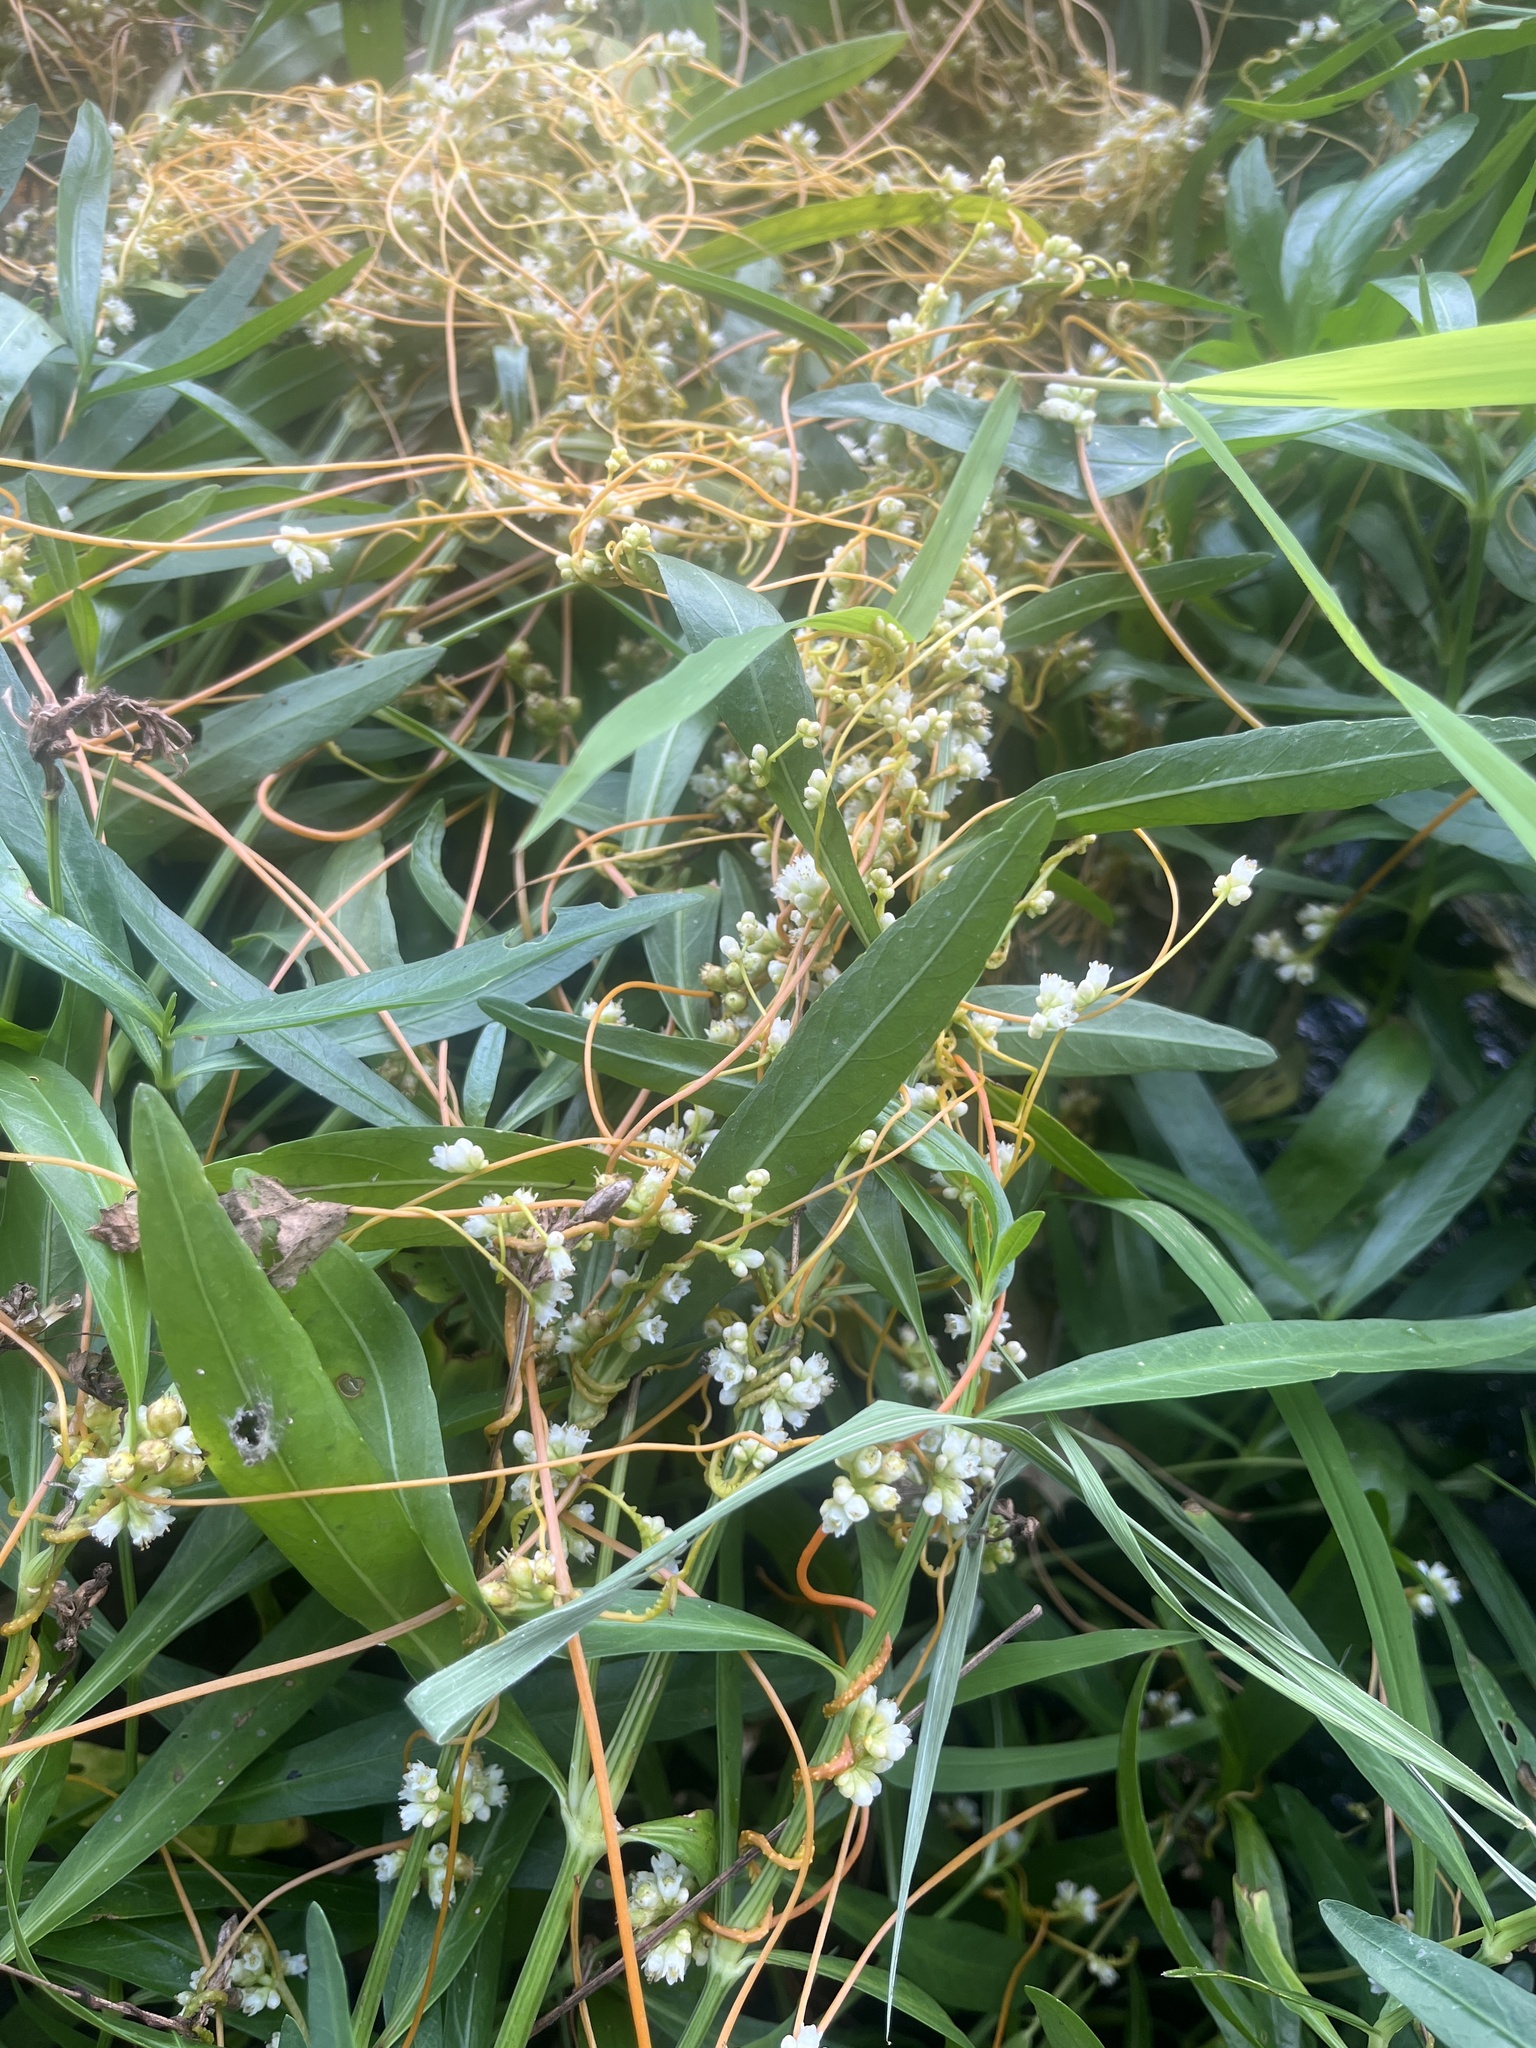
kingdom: Plantae
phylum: Tracheophyta
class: Magnoliopsida
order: Solanales
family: Convolvulaceae
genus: Cuscuta
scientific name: Cuscuta gronovii
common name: Common dodder
